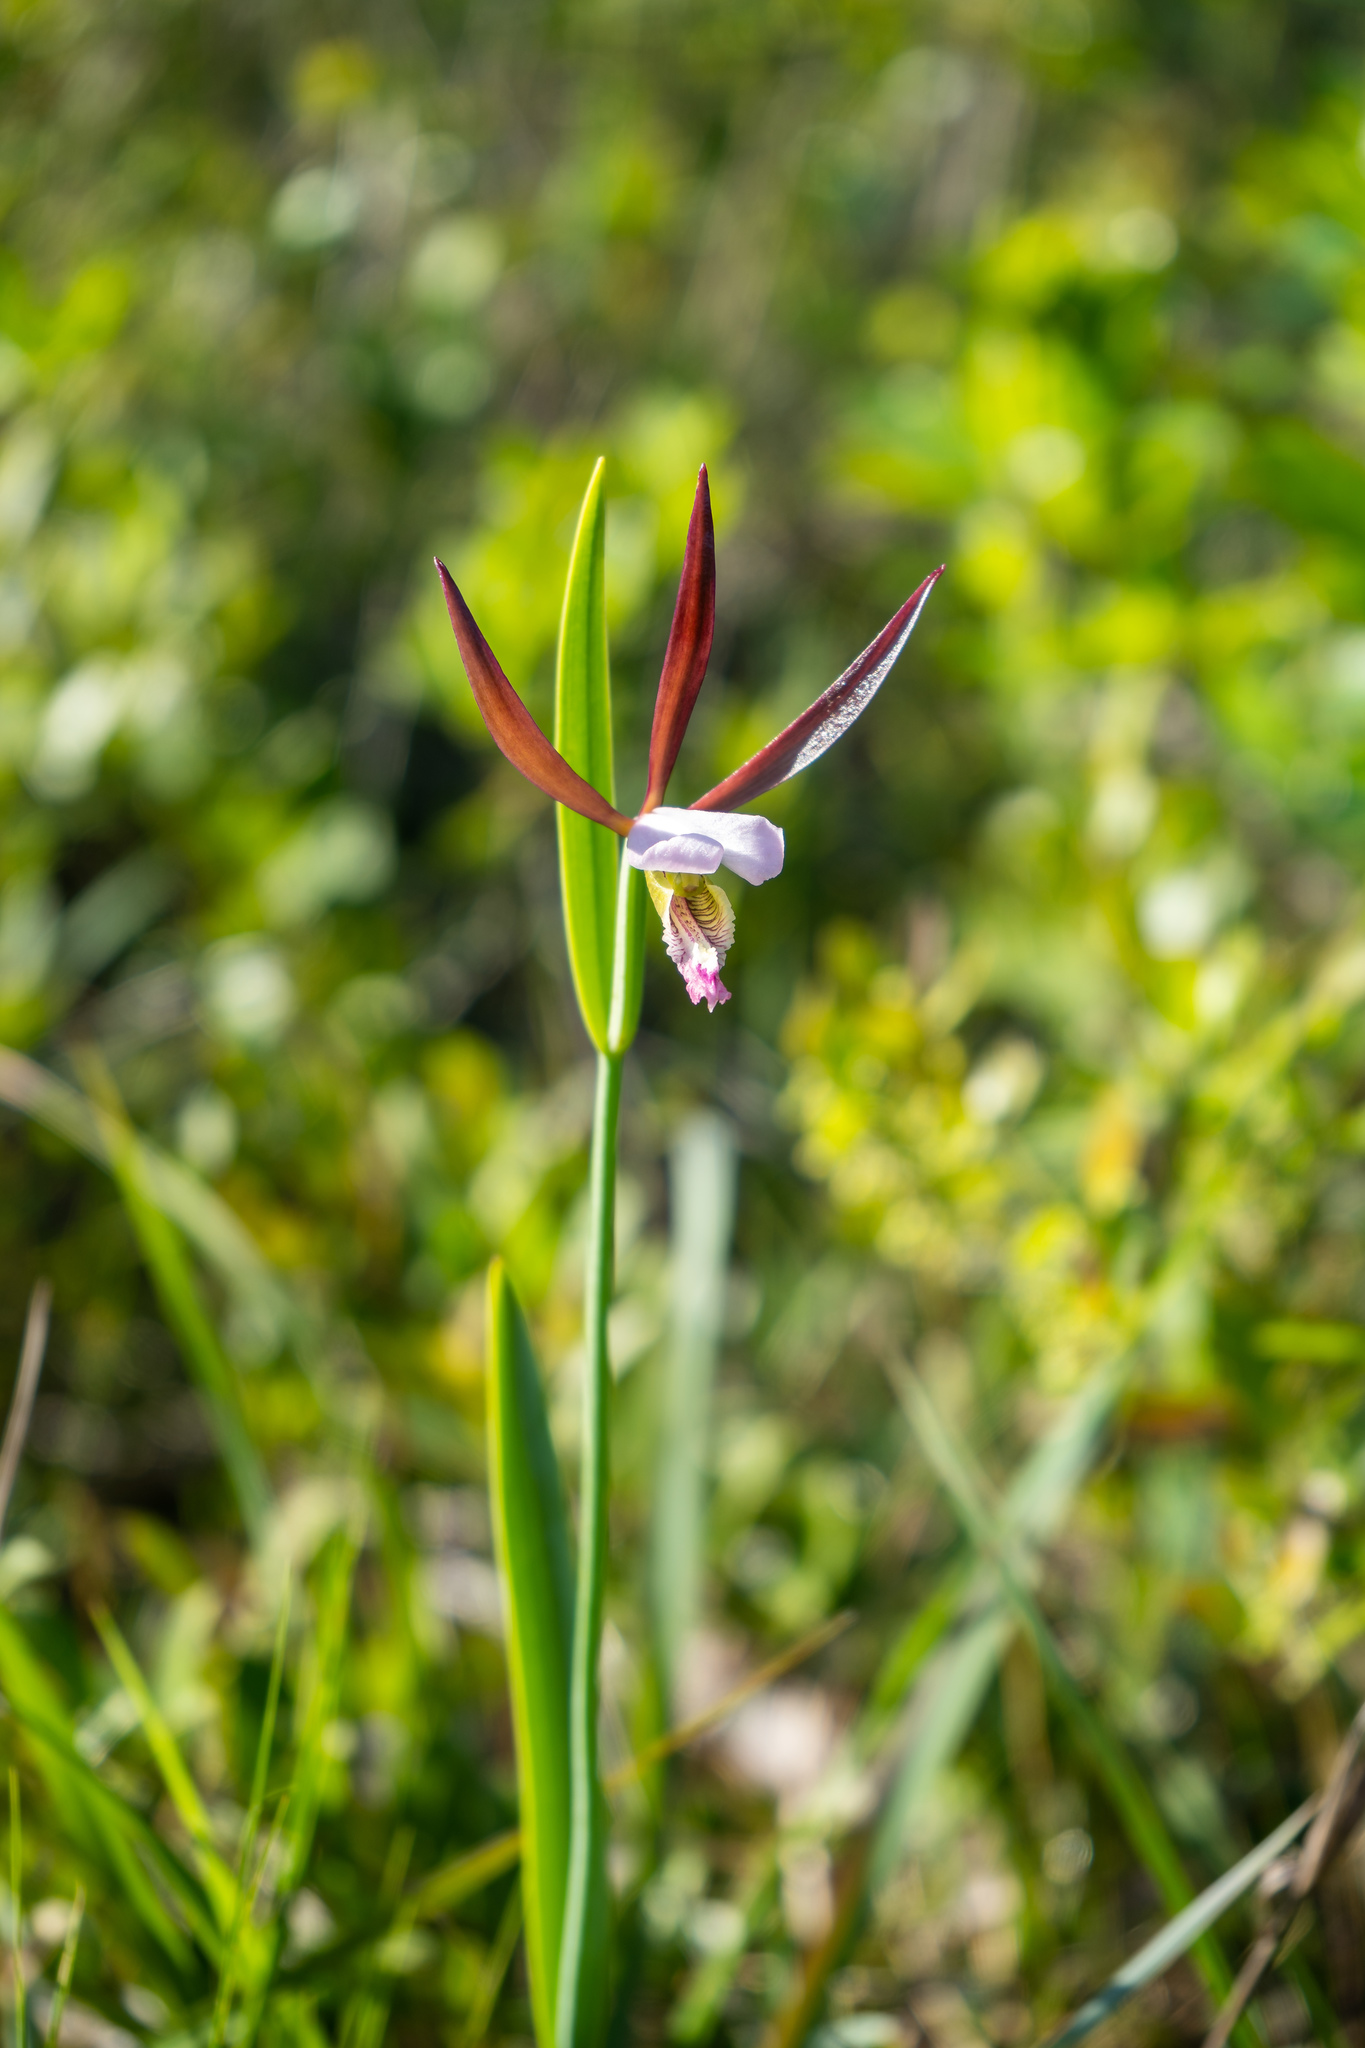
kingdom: Plantae
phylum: Tracheophyta
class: Liliopsida
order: Asparagales
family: Orchidaceae
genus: Cleistesiopsis
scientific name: Cleistesiopsis oricamporum
